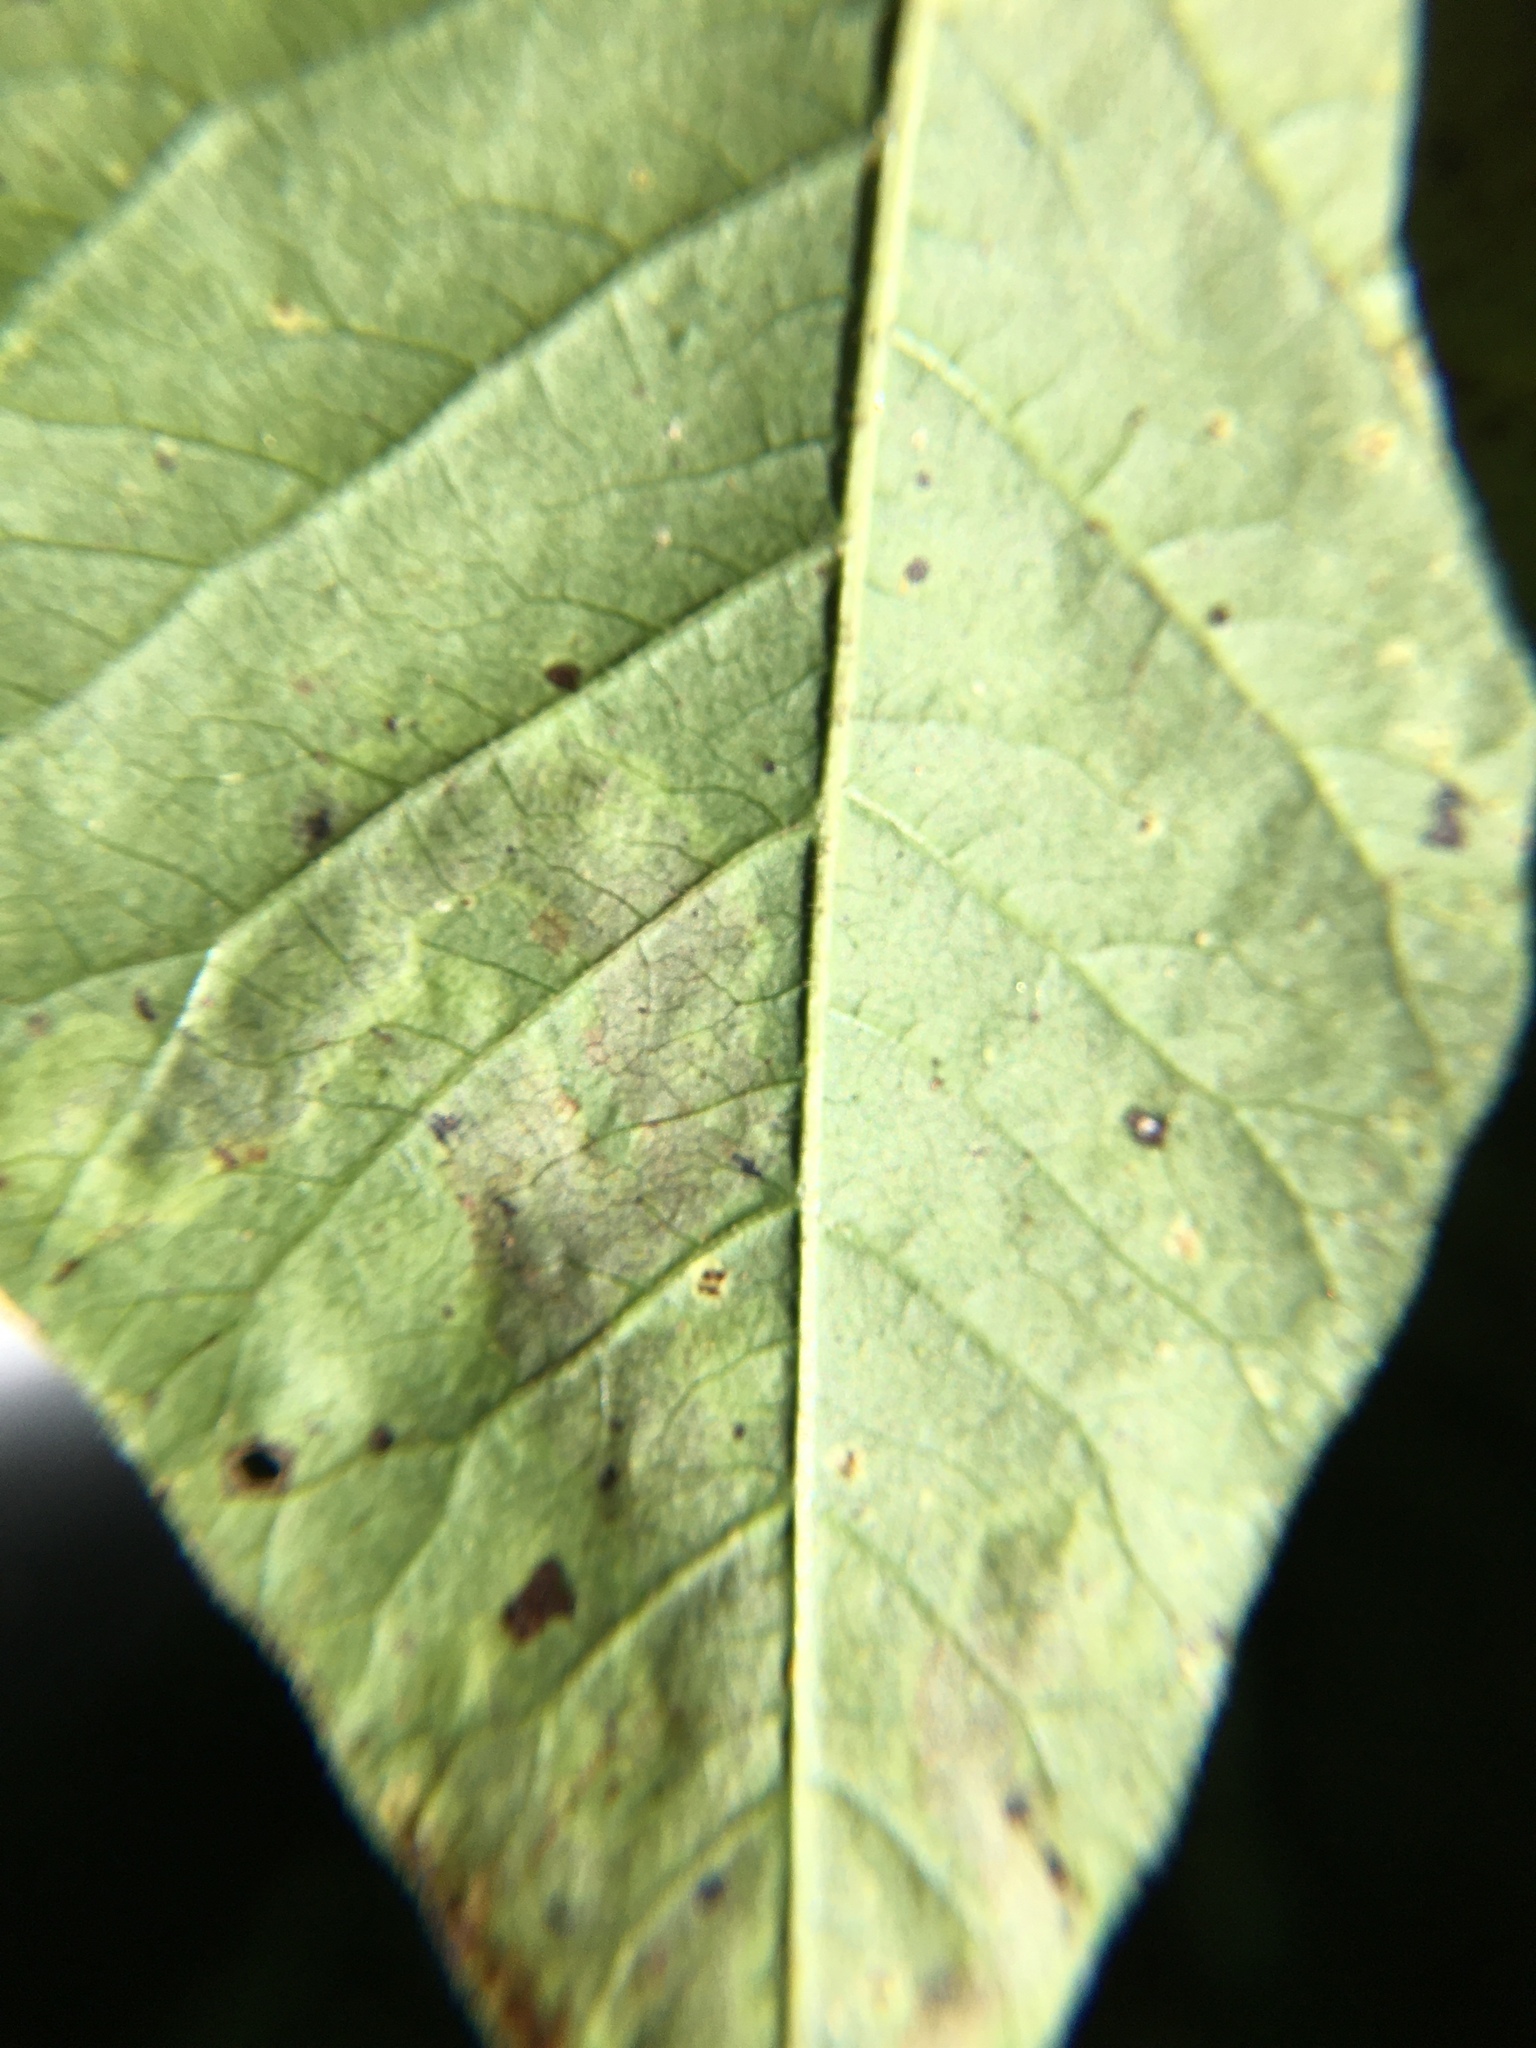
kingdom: Animalia
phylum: Arthropoda
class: Insecta
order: Lepidoptera
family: Gracillariidae
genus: Cameraria
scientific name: Cameraria guttifinitella
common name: Poison ivy leaf-miner moth
